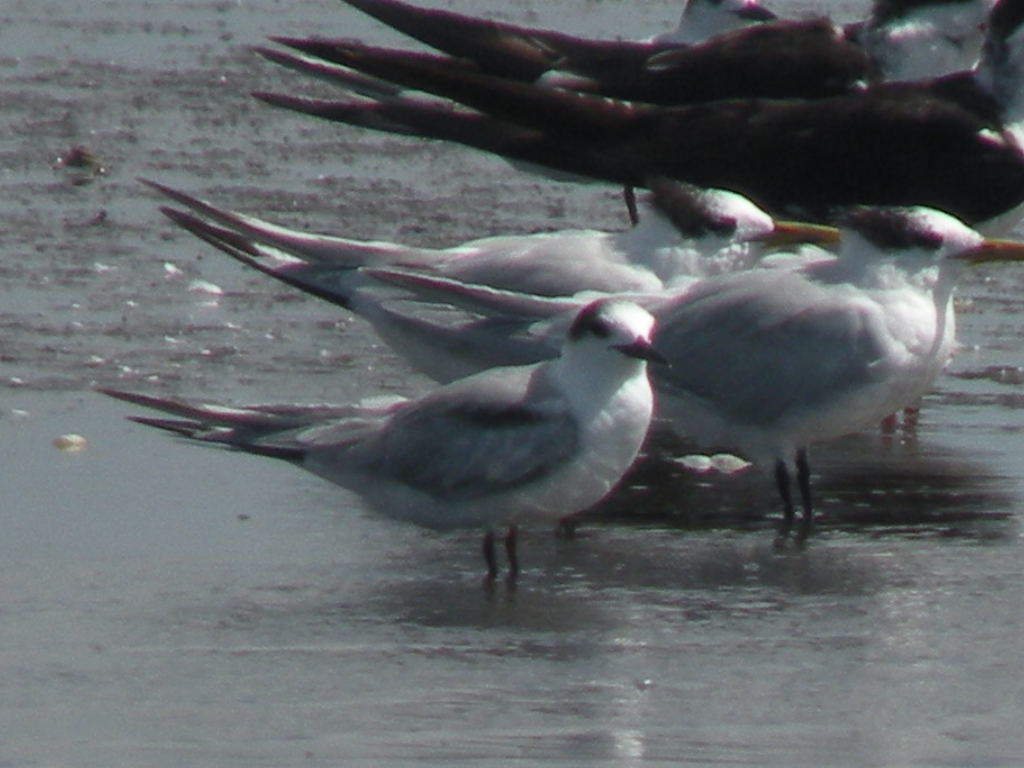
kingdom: Animalia
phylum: Chordata
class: Aves
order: Charadriiformes
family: Laridae
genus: Sterna
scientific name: Sterna hirundo
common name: Common tern
